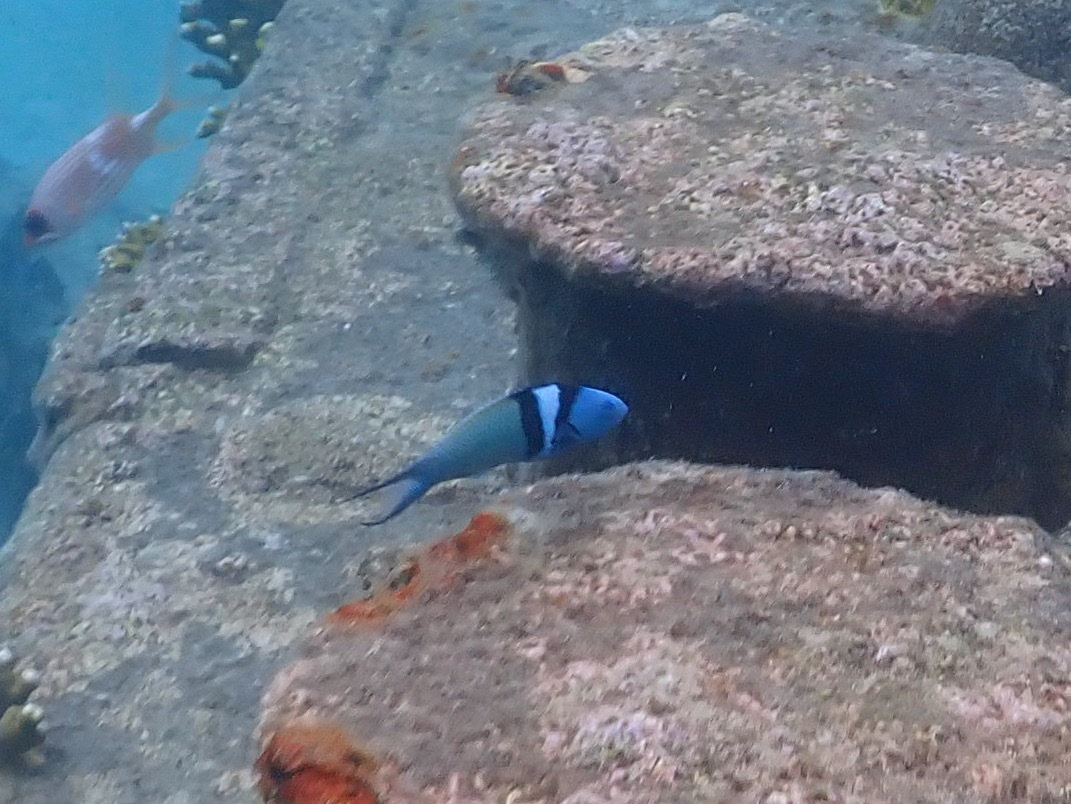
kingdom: Animalia
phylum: Chordata
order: Perciformes
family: Labridae
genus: Thalassoma
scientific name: Thalassoma bifasciatum
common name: Bluehead wrasse
